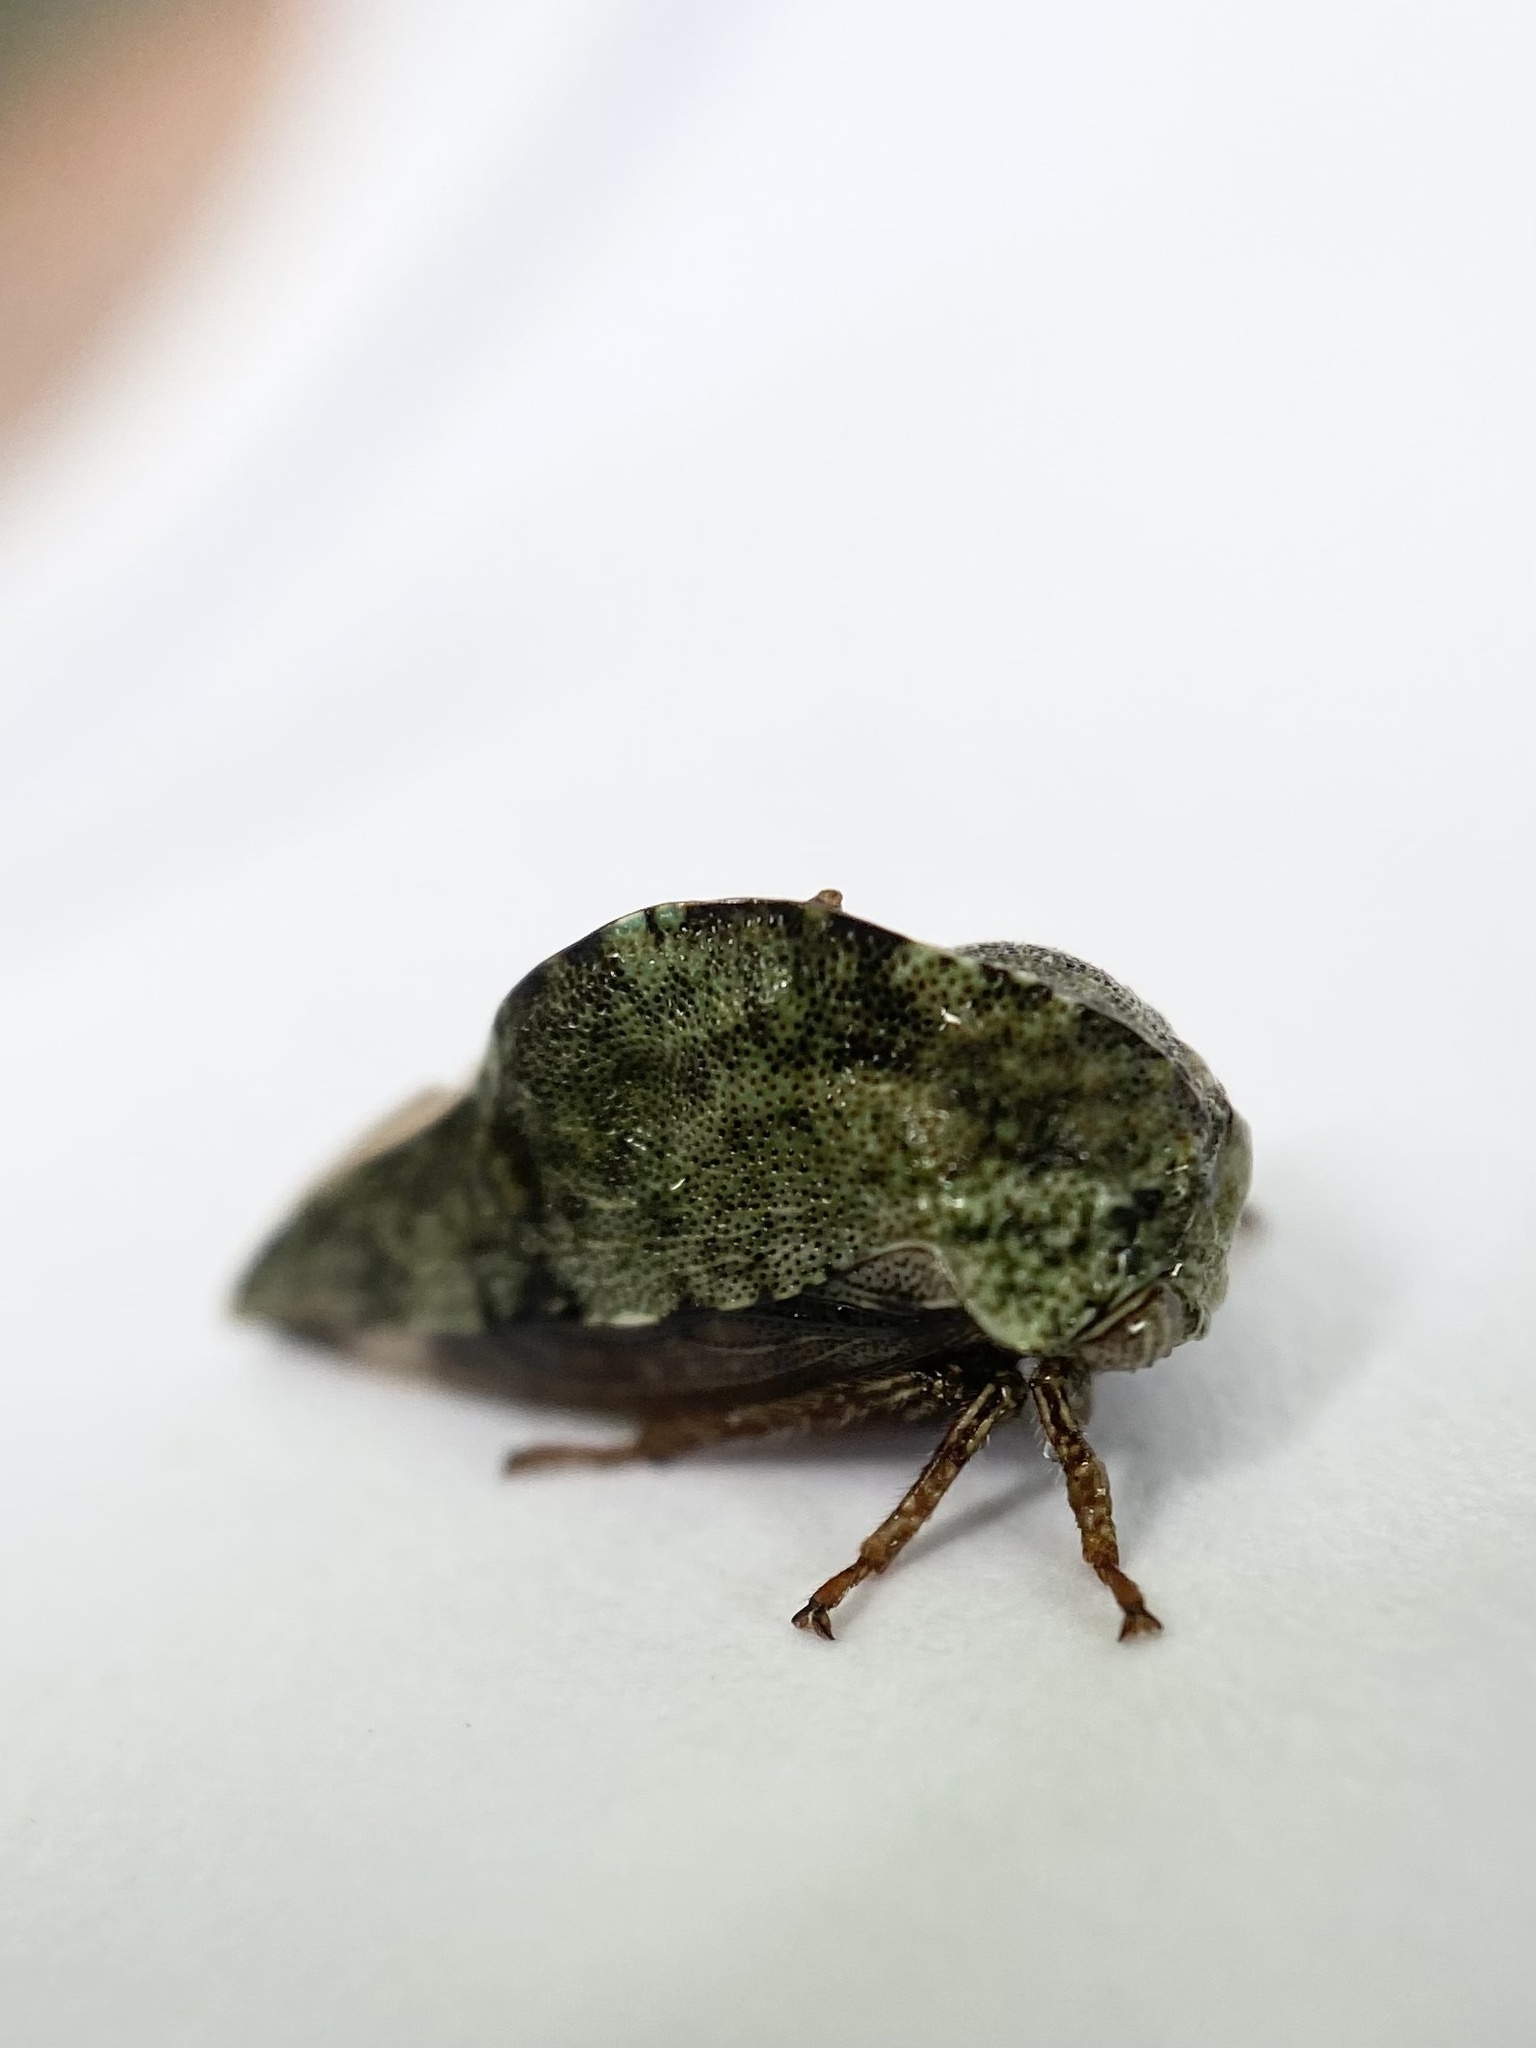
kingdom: Animalia
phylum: Arthropoda
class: Insecta
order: Hemiptera
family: Membracidae
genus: Telamona
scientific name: Telamona westcotti
